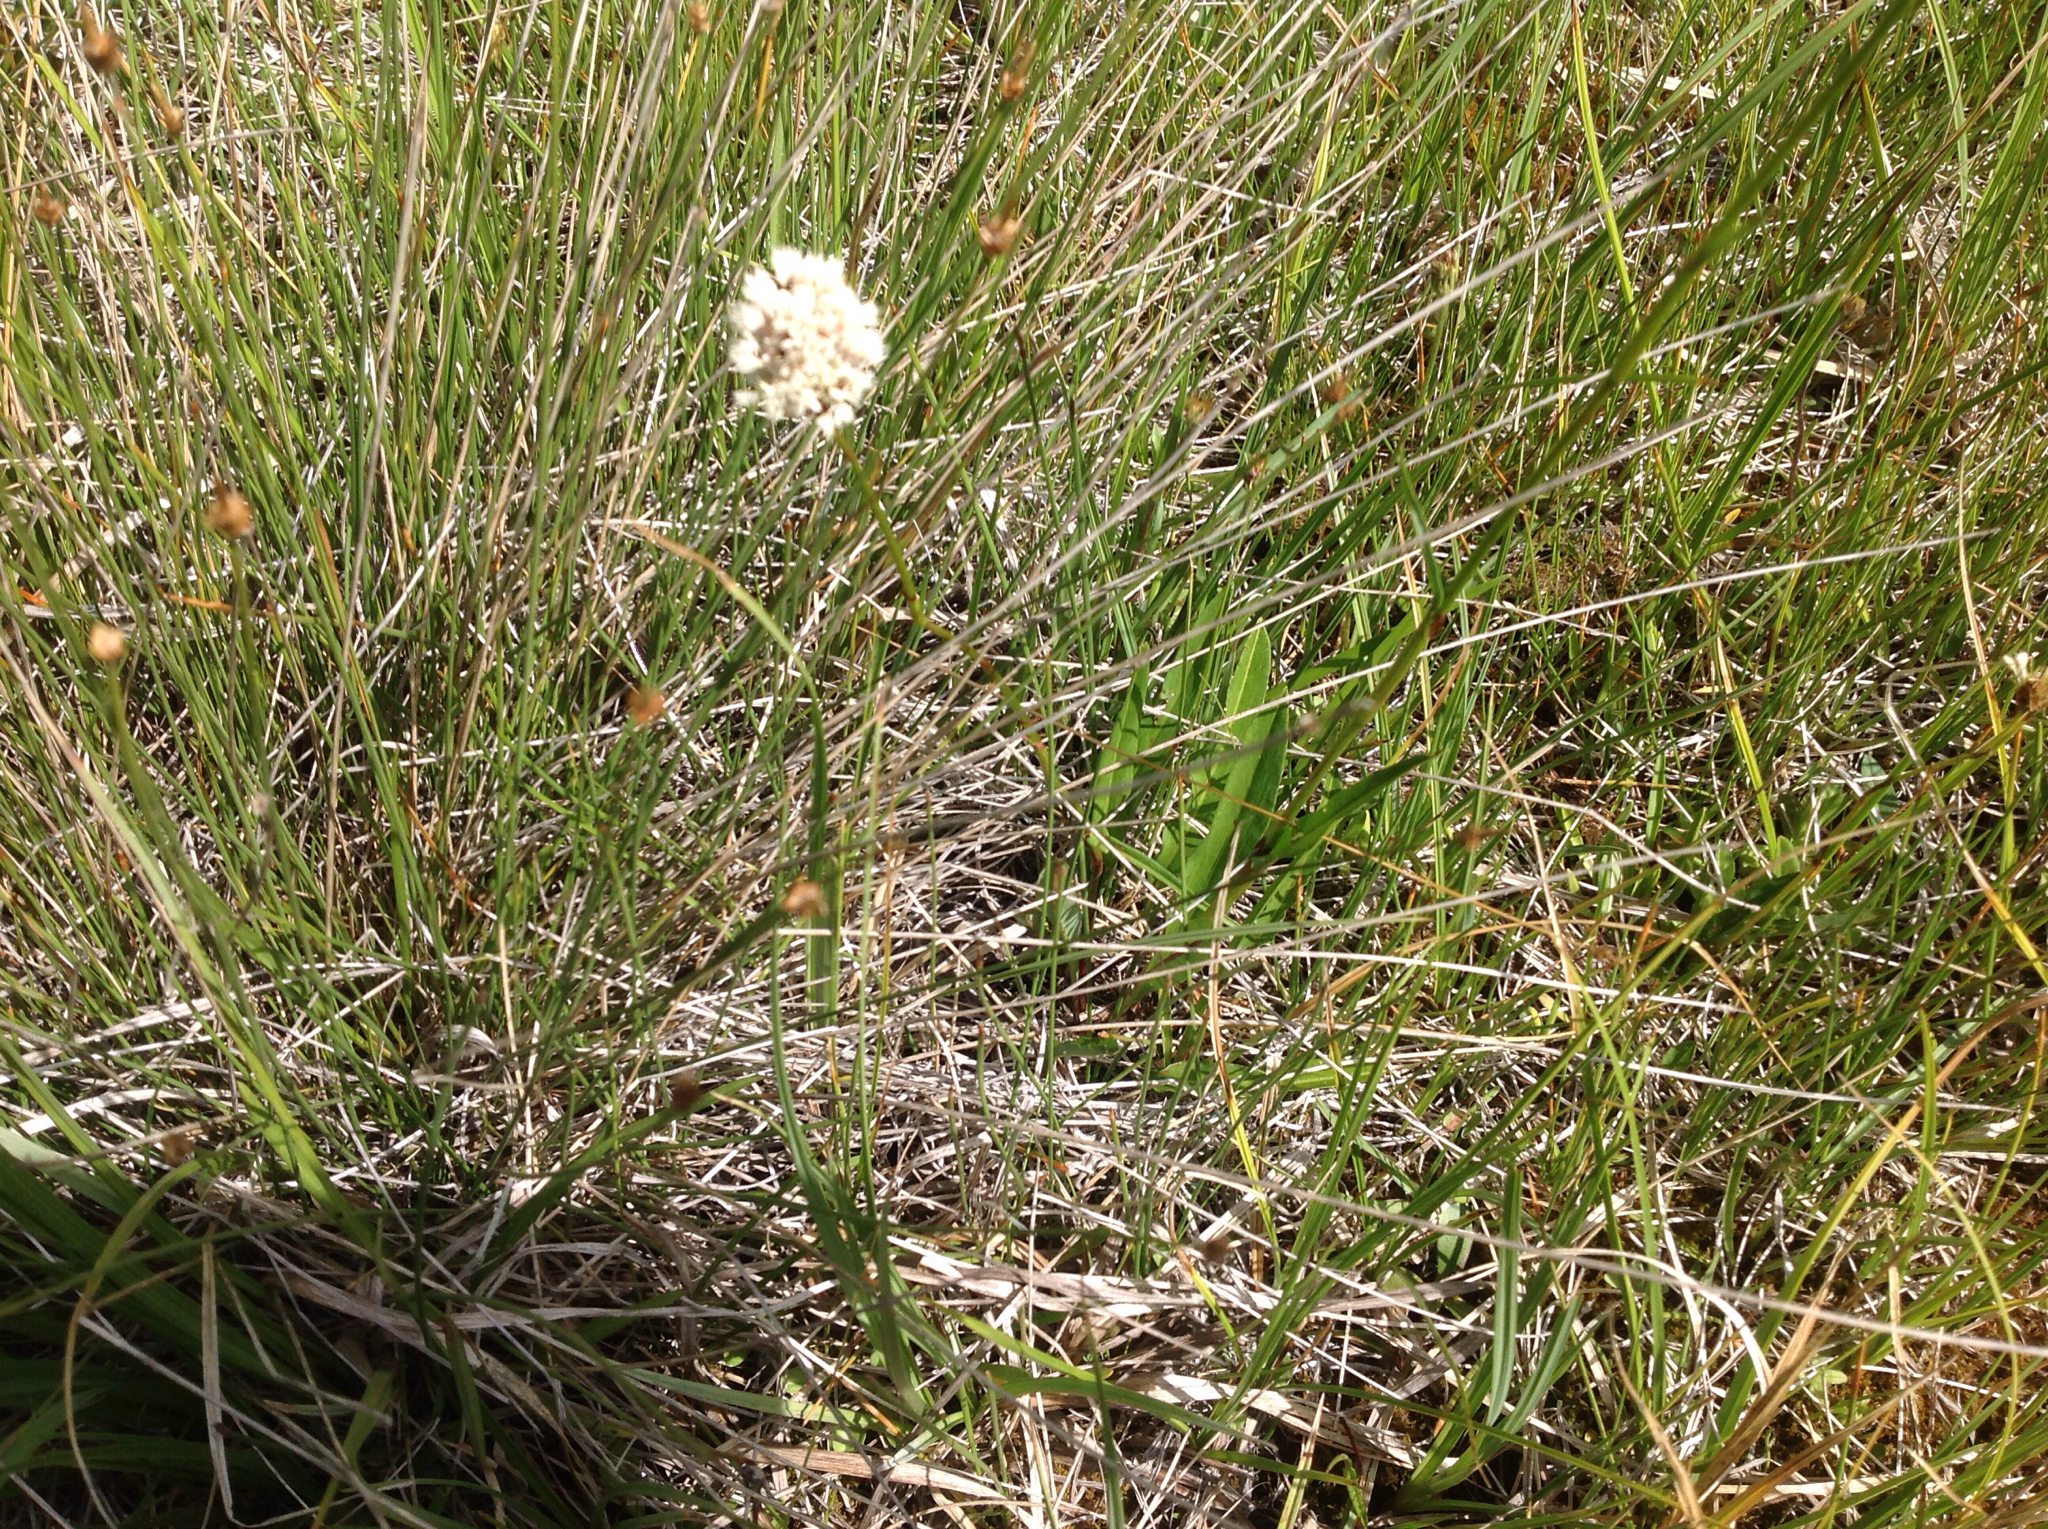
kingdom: Plantae
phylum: Tracheophyta
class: Magnoliopsida
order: Caryophyllales
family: Polygonaceae
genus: Bistorta
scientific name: Bistorta bistortoides
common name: American bistort
